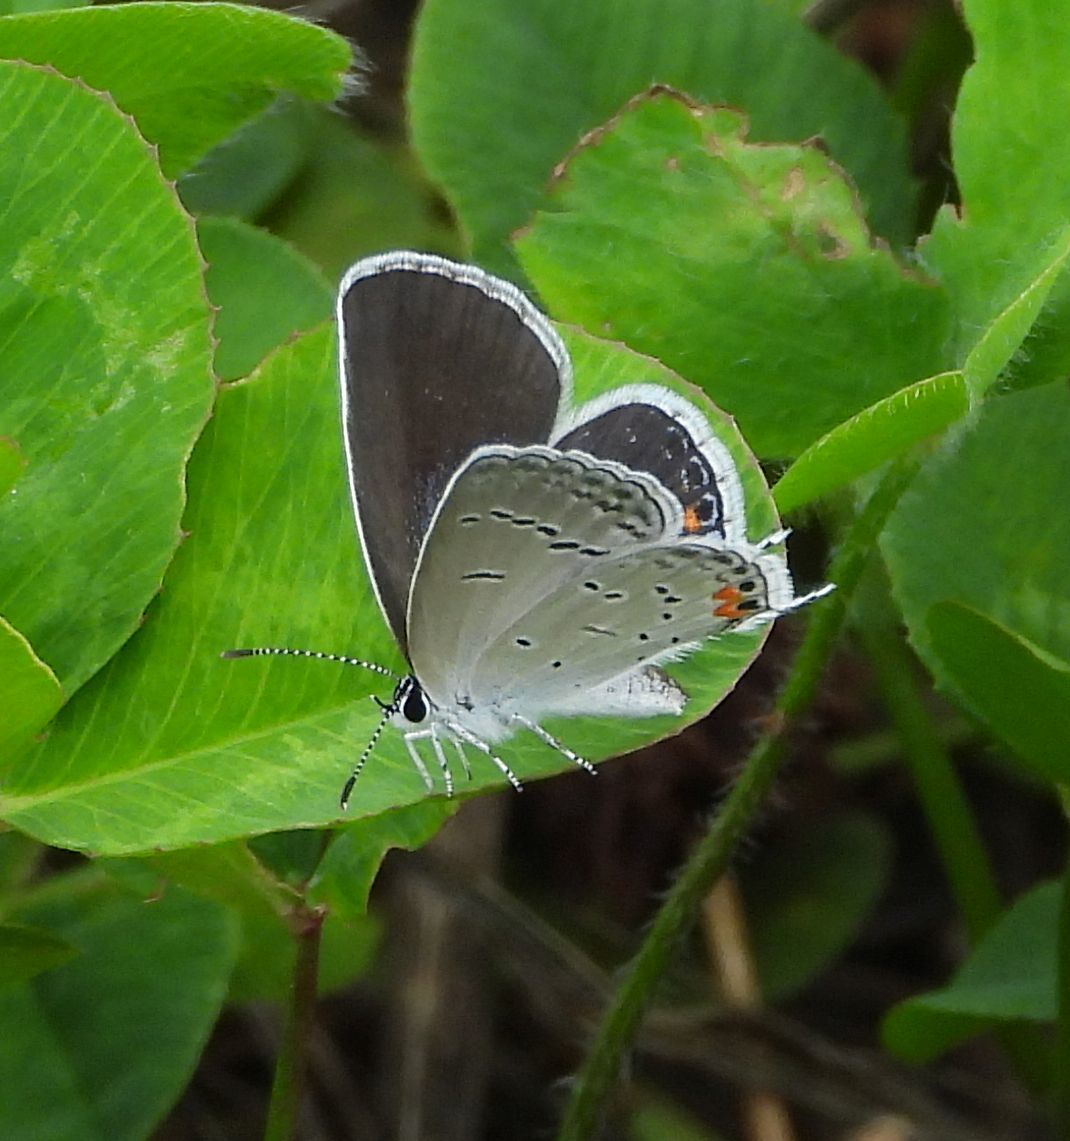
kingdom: Animalia
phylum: Arthropoda
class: Insecta
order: Lepidoptera
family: Lycaenidae
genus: Elkalyce
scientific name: Elkalyce comyntas
